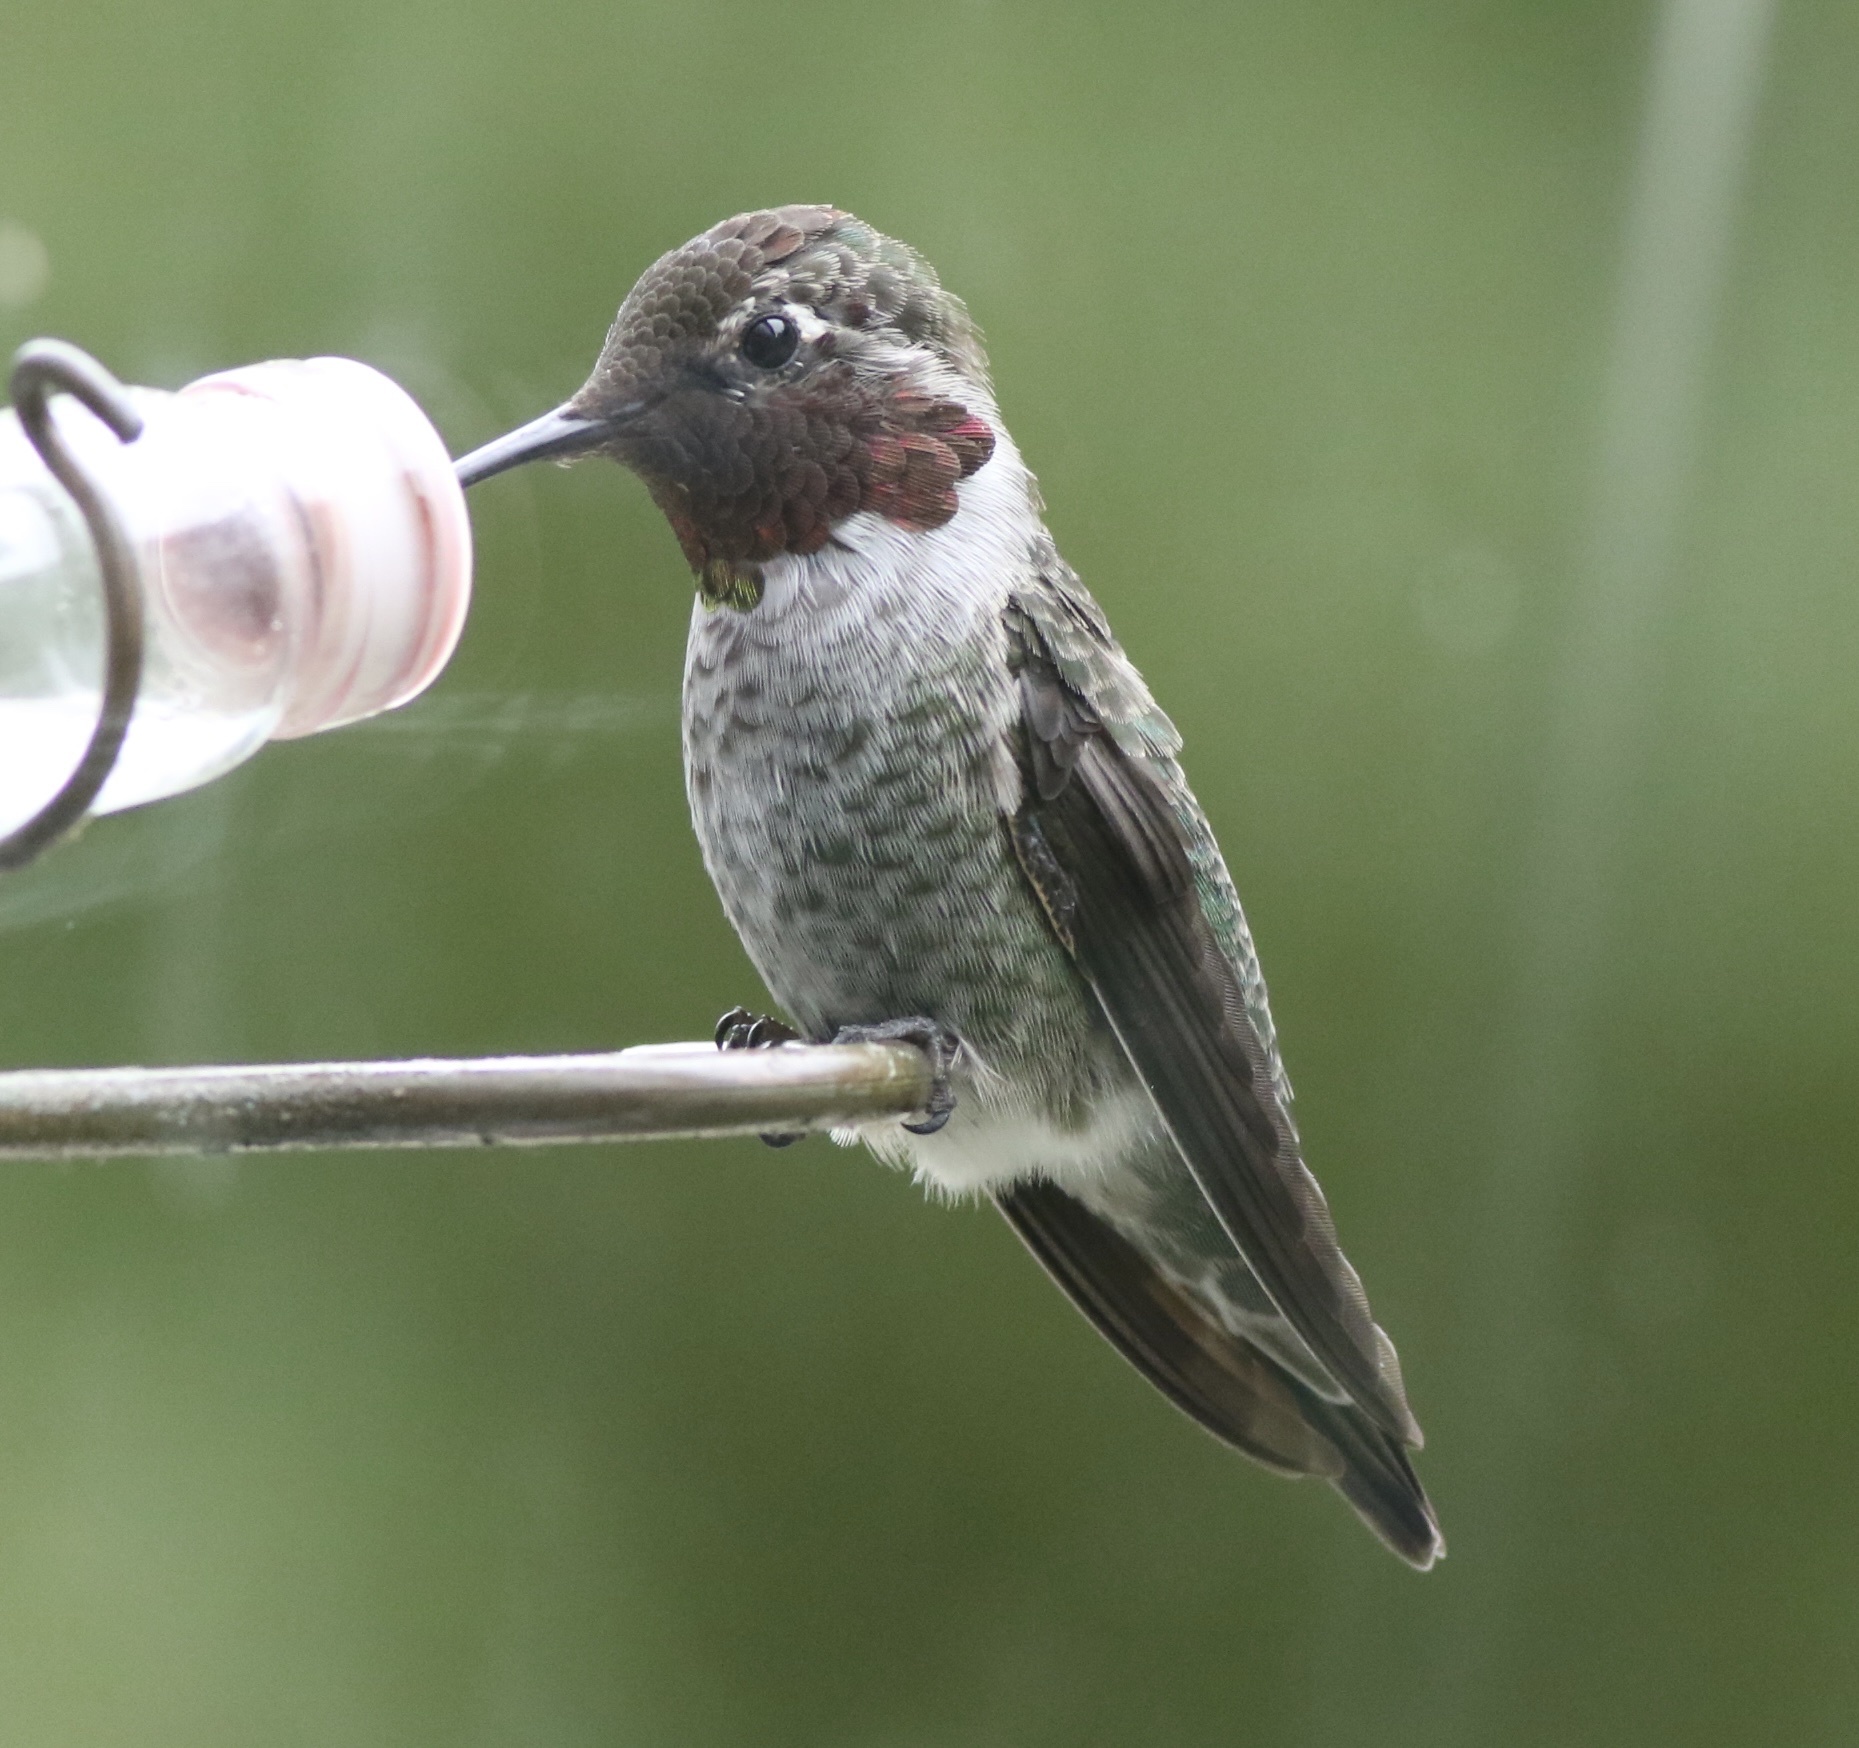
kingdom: Animalia
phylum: Chordata
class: Aves
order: Apodiformes
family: Trochilidae
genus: Calypte
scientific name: Calypte anna
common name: Anna's hummingbird
